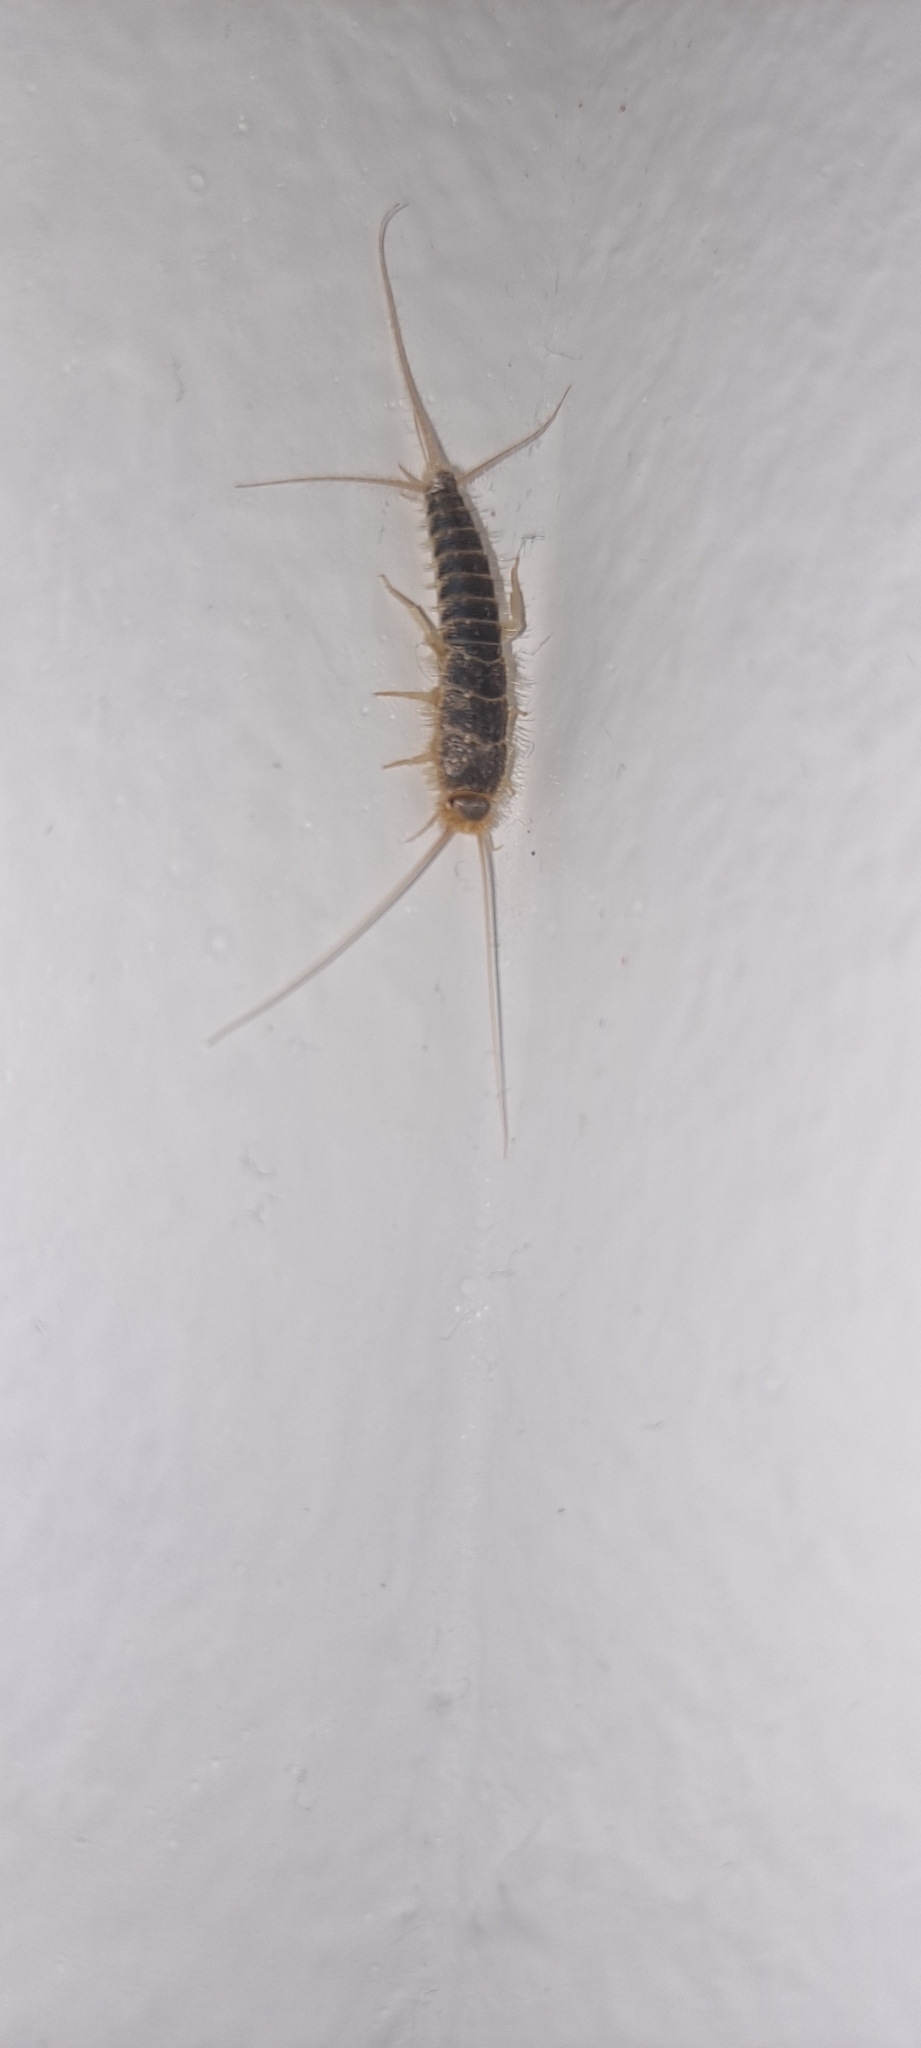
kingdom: Animalia
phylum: Arthropoda
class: Insecta
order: Zygentoma
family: Lepismatidae
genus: Ctenolepisma
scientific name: Ctenolepisma longicaudatum
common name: Silverfish
